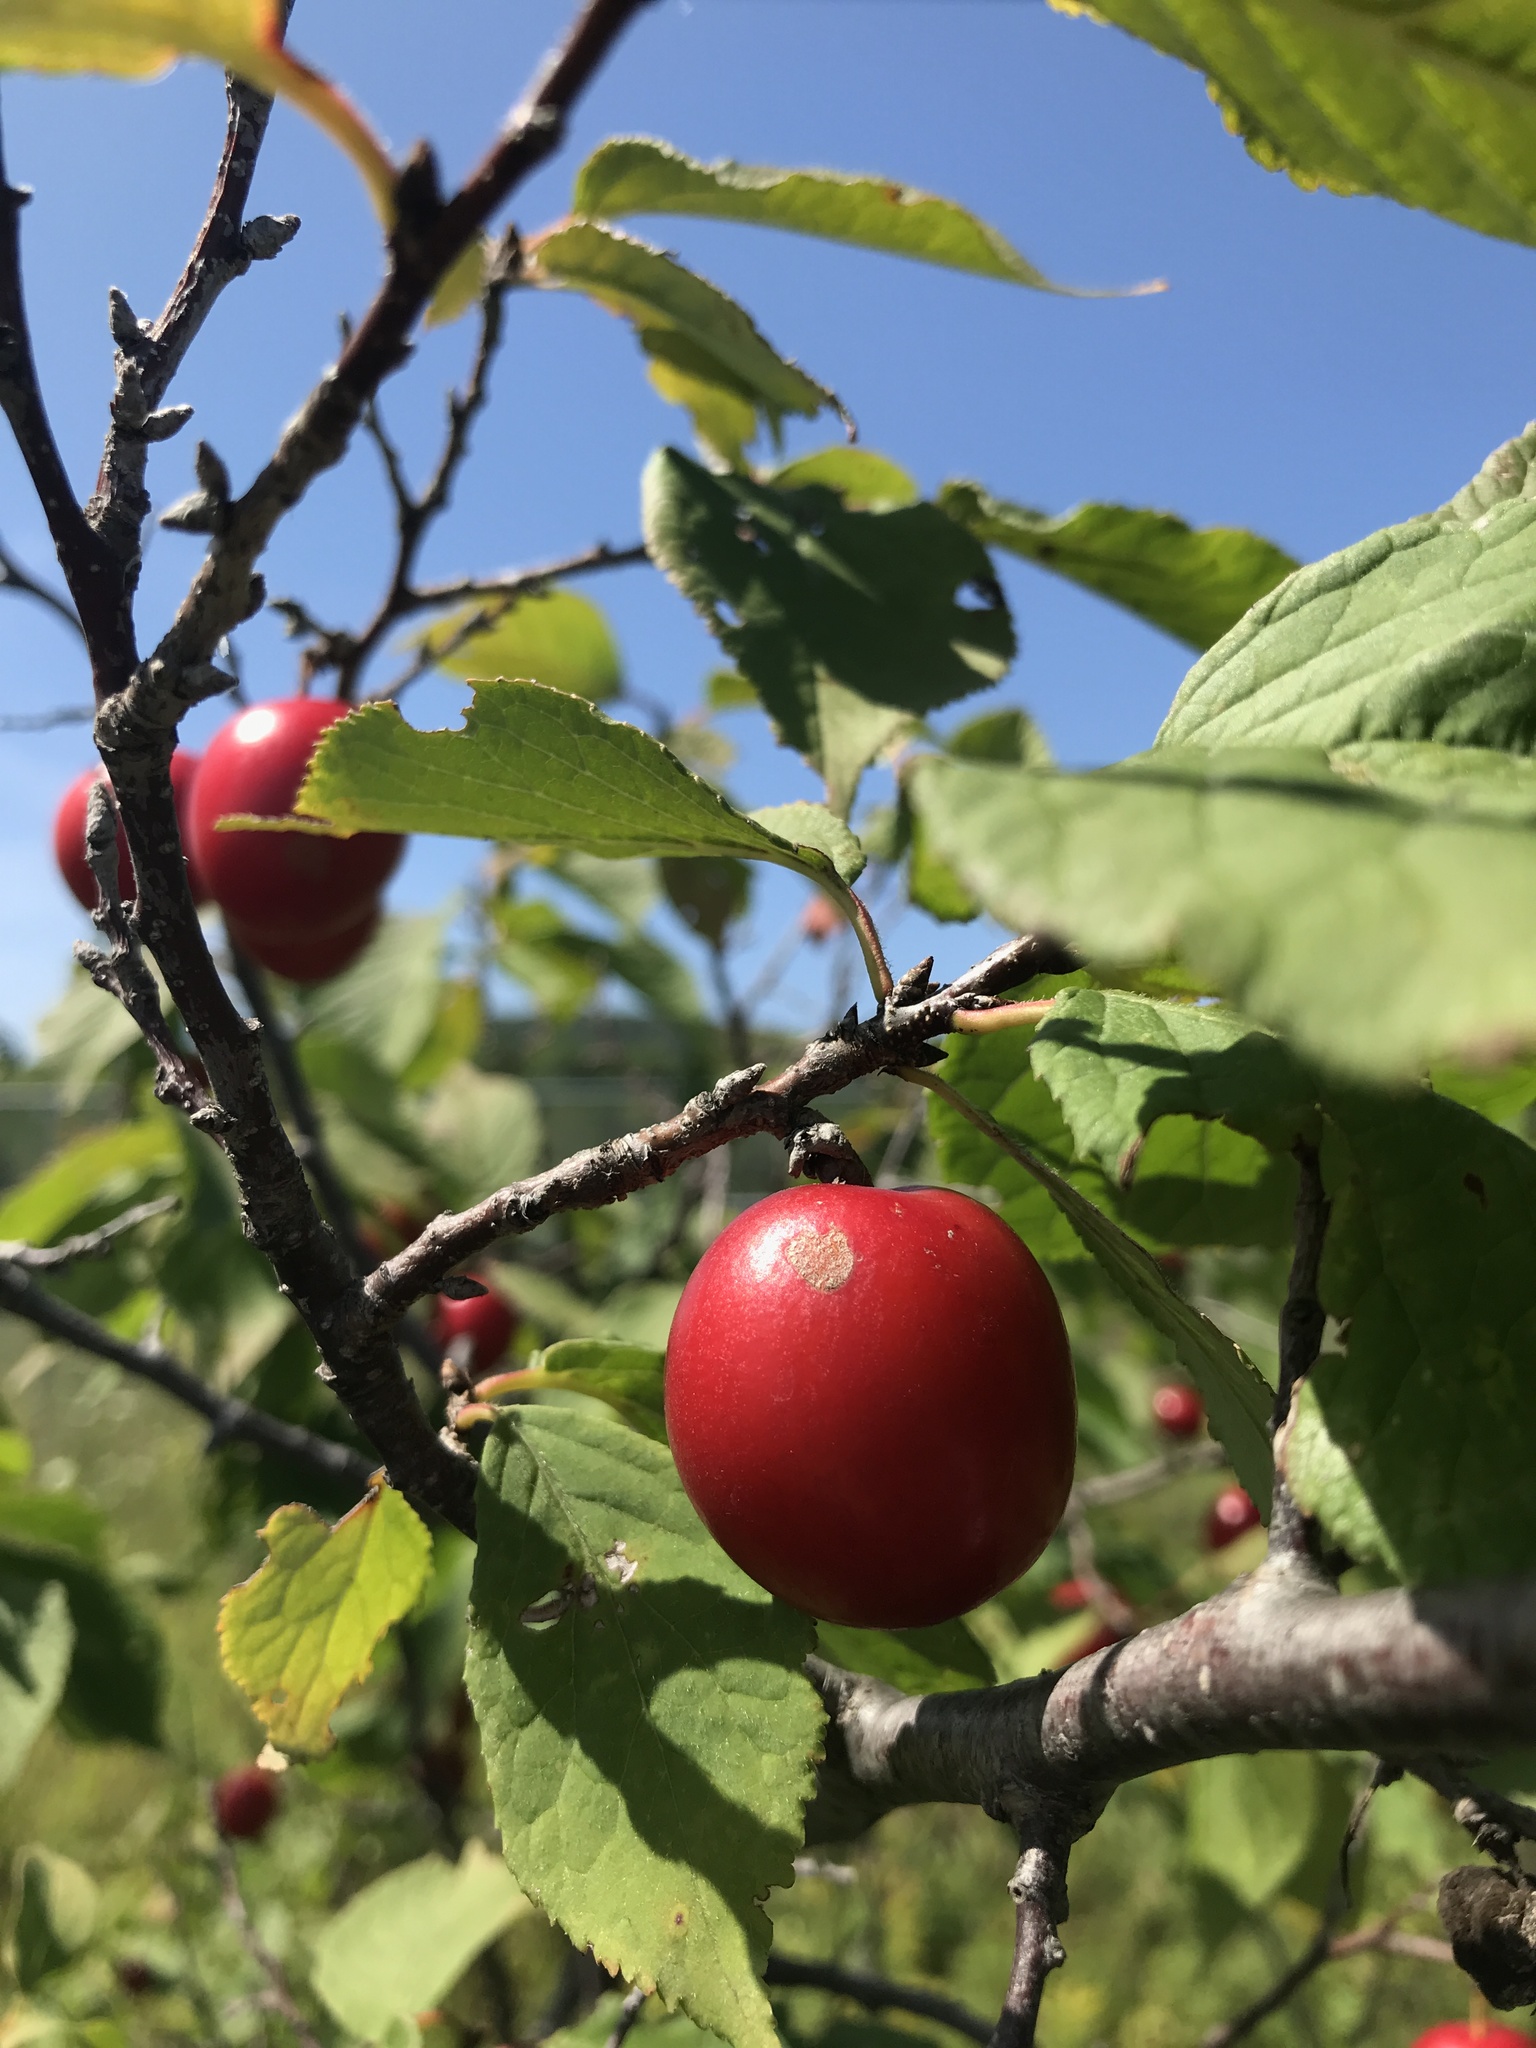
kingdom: Plantae
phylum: Tracheophyta
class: Magnoliopsida
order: Rosales
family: Rosaceae
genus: Prunus
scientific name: Prunus nigra
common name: Black plum
